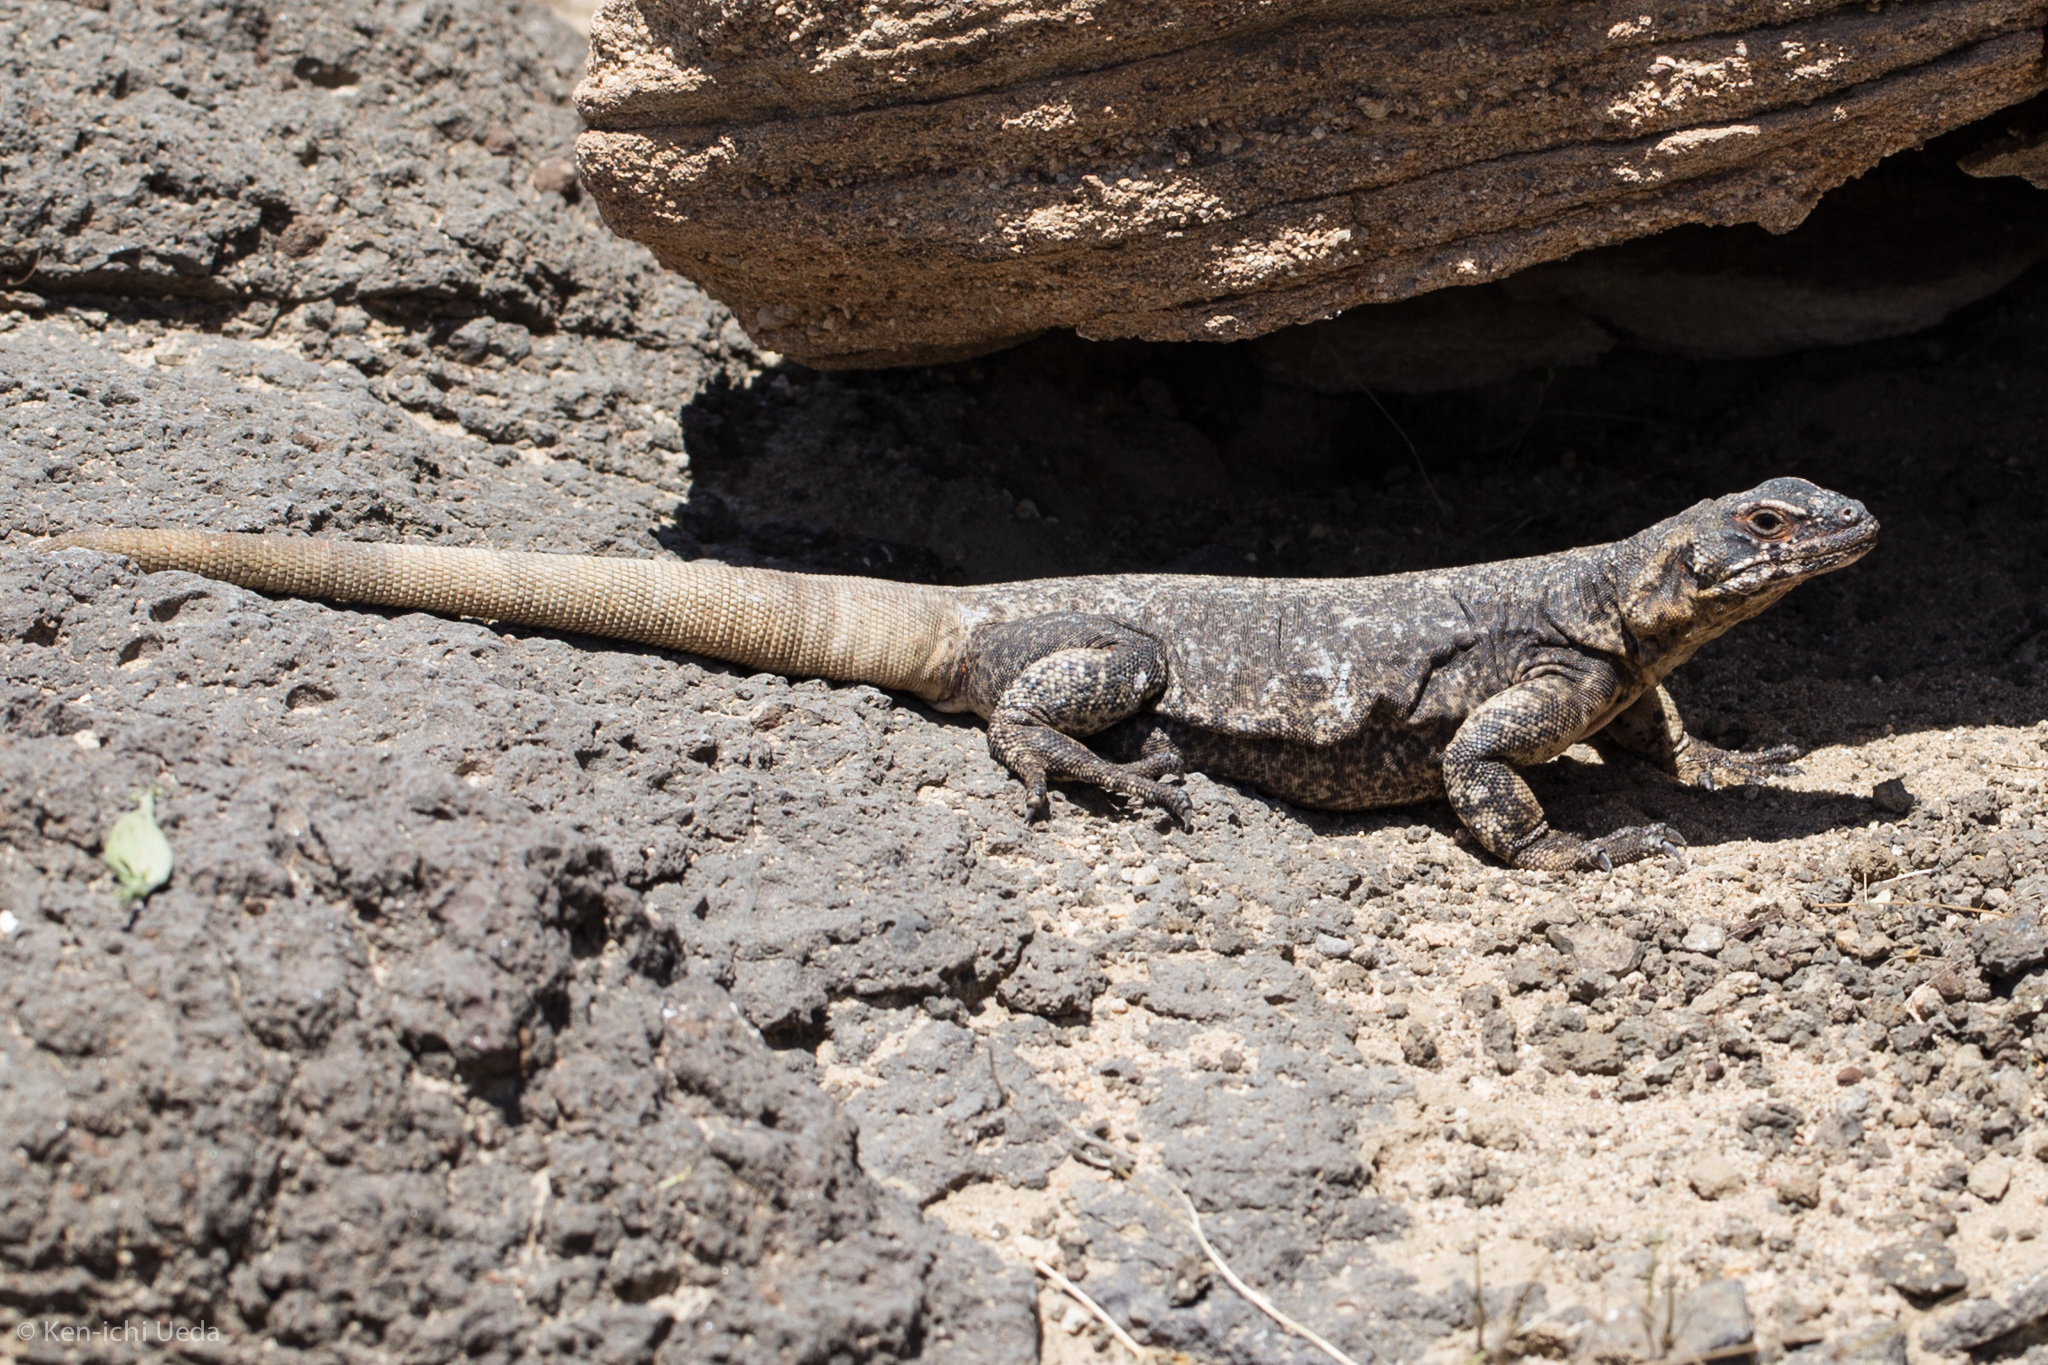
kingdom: Animalia
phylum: Chordata
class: Squamata
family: Iguanidae
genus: Sauromalus
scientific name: Sauromalus ater
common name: Northern chuckwalla
